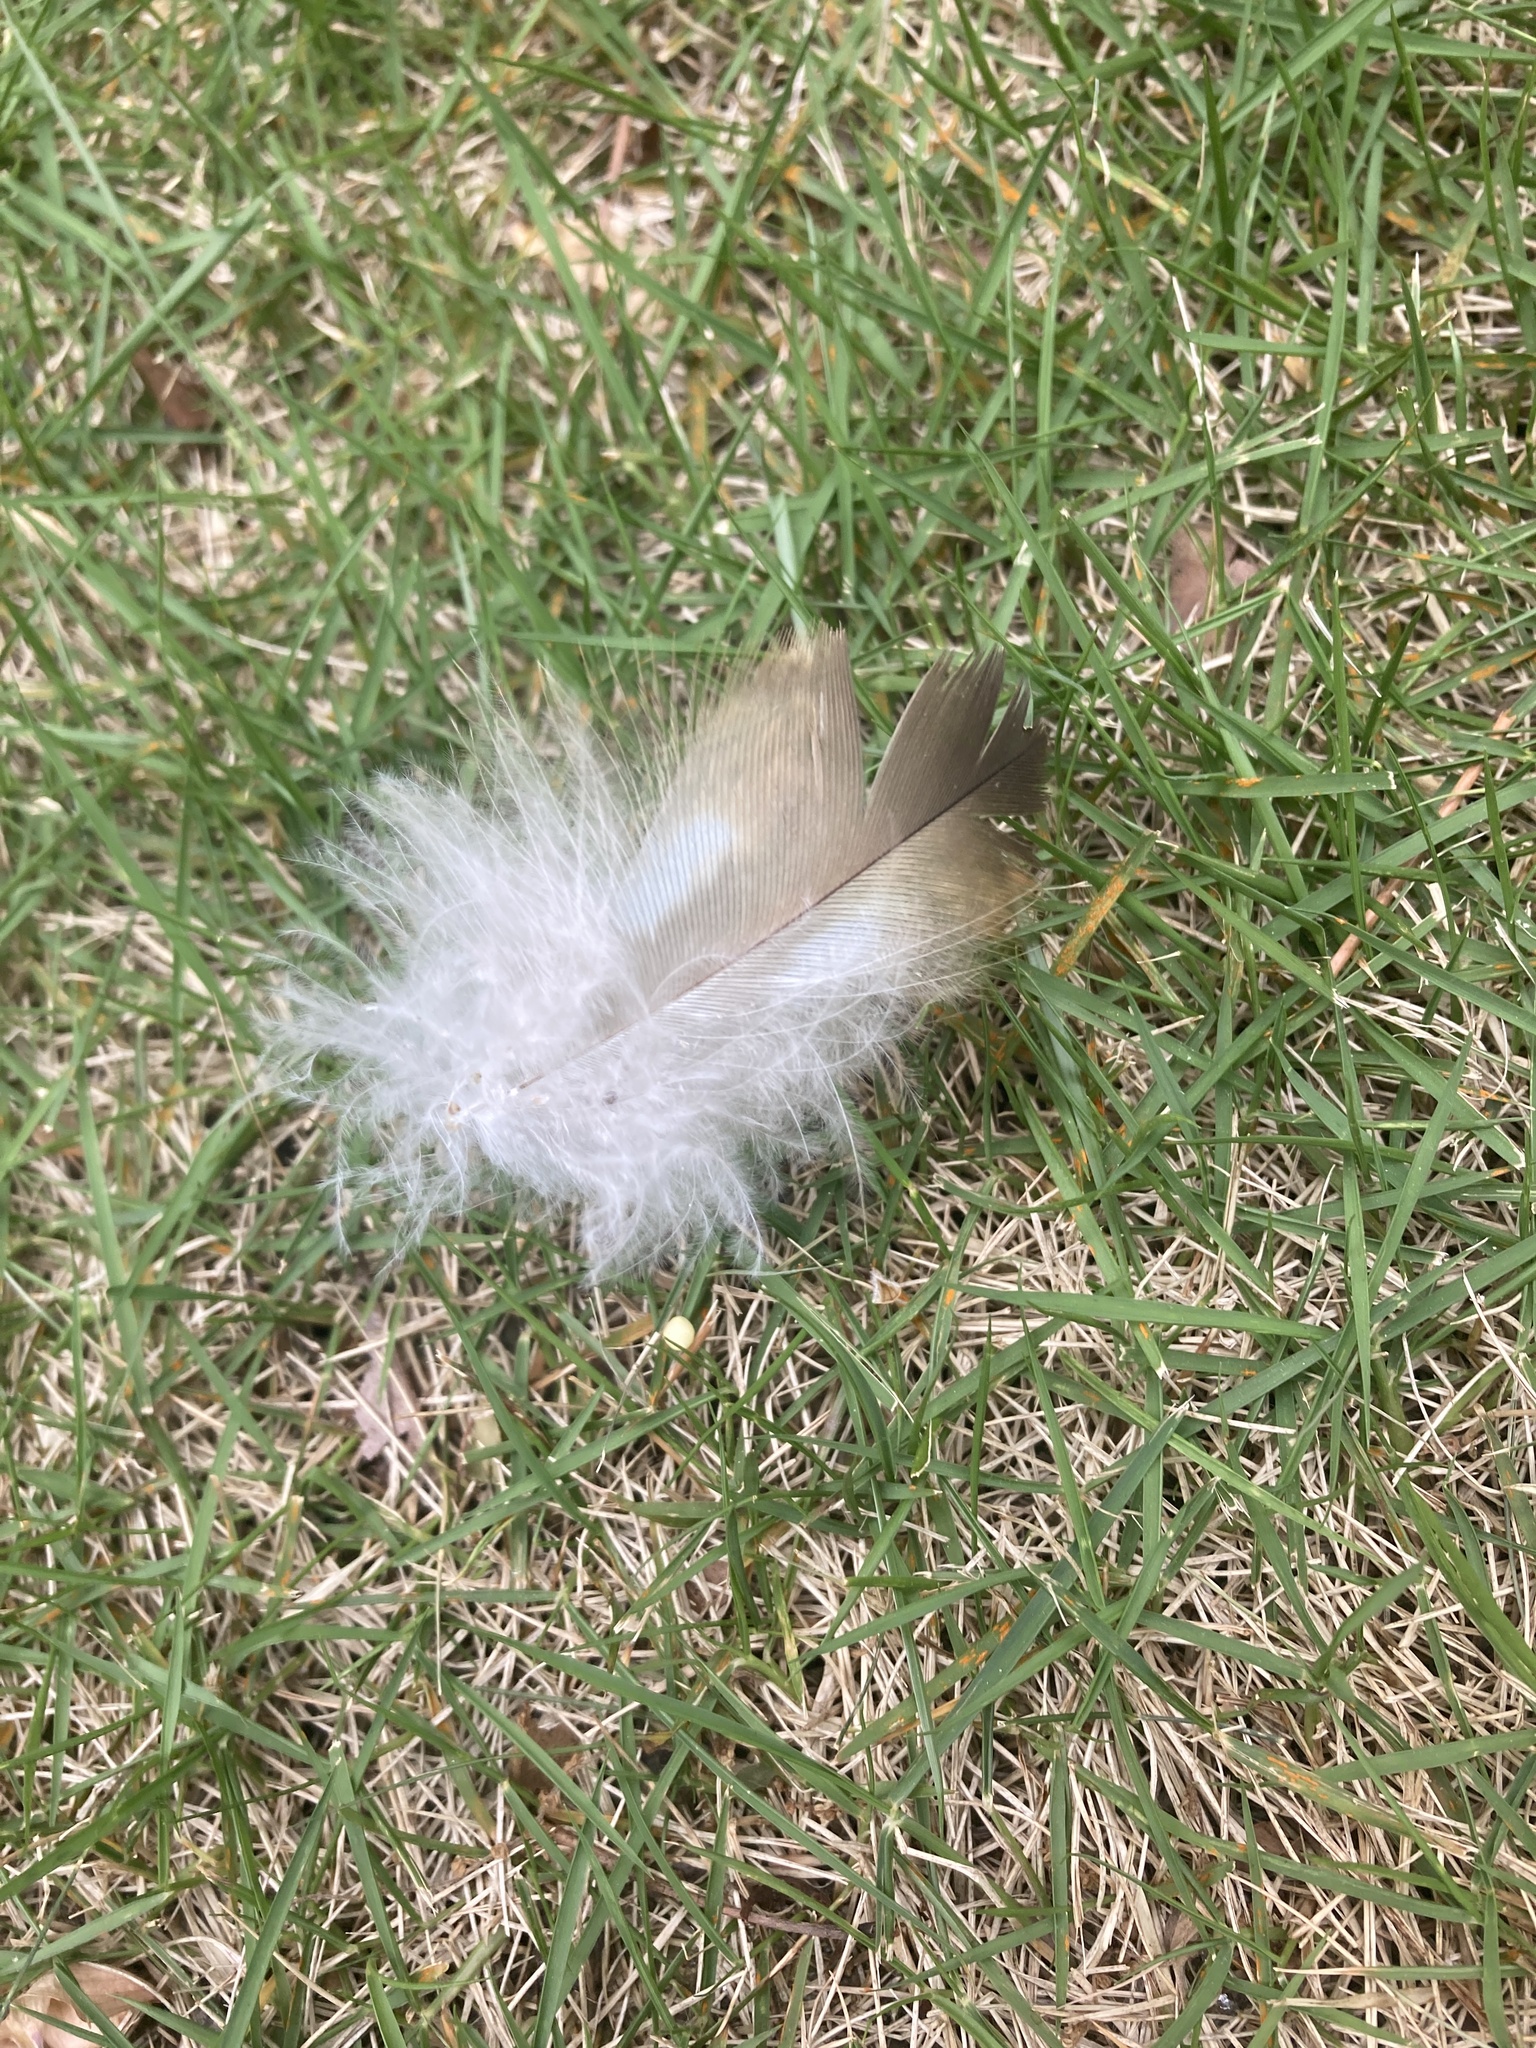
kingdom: Animalia
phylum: Chordata
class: Aves
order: Accipitriformes
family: Accipitridae
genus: Buteo
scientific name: Buteo lineatus
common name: Red-shouldered hawk
